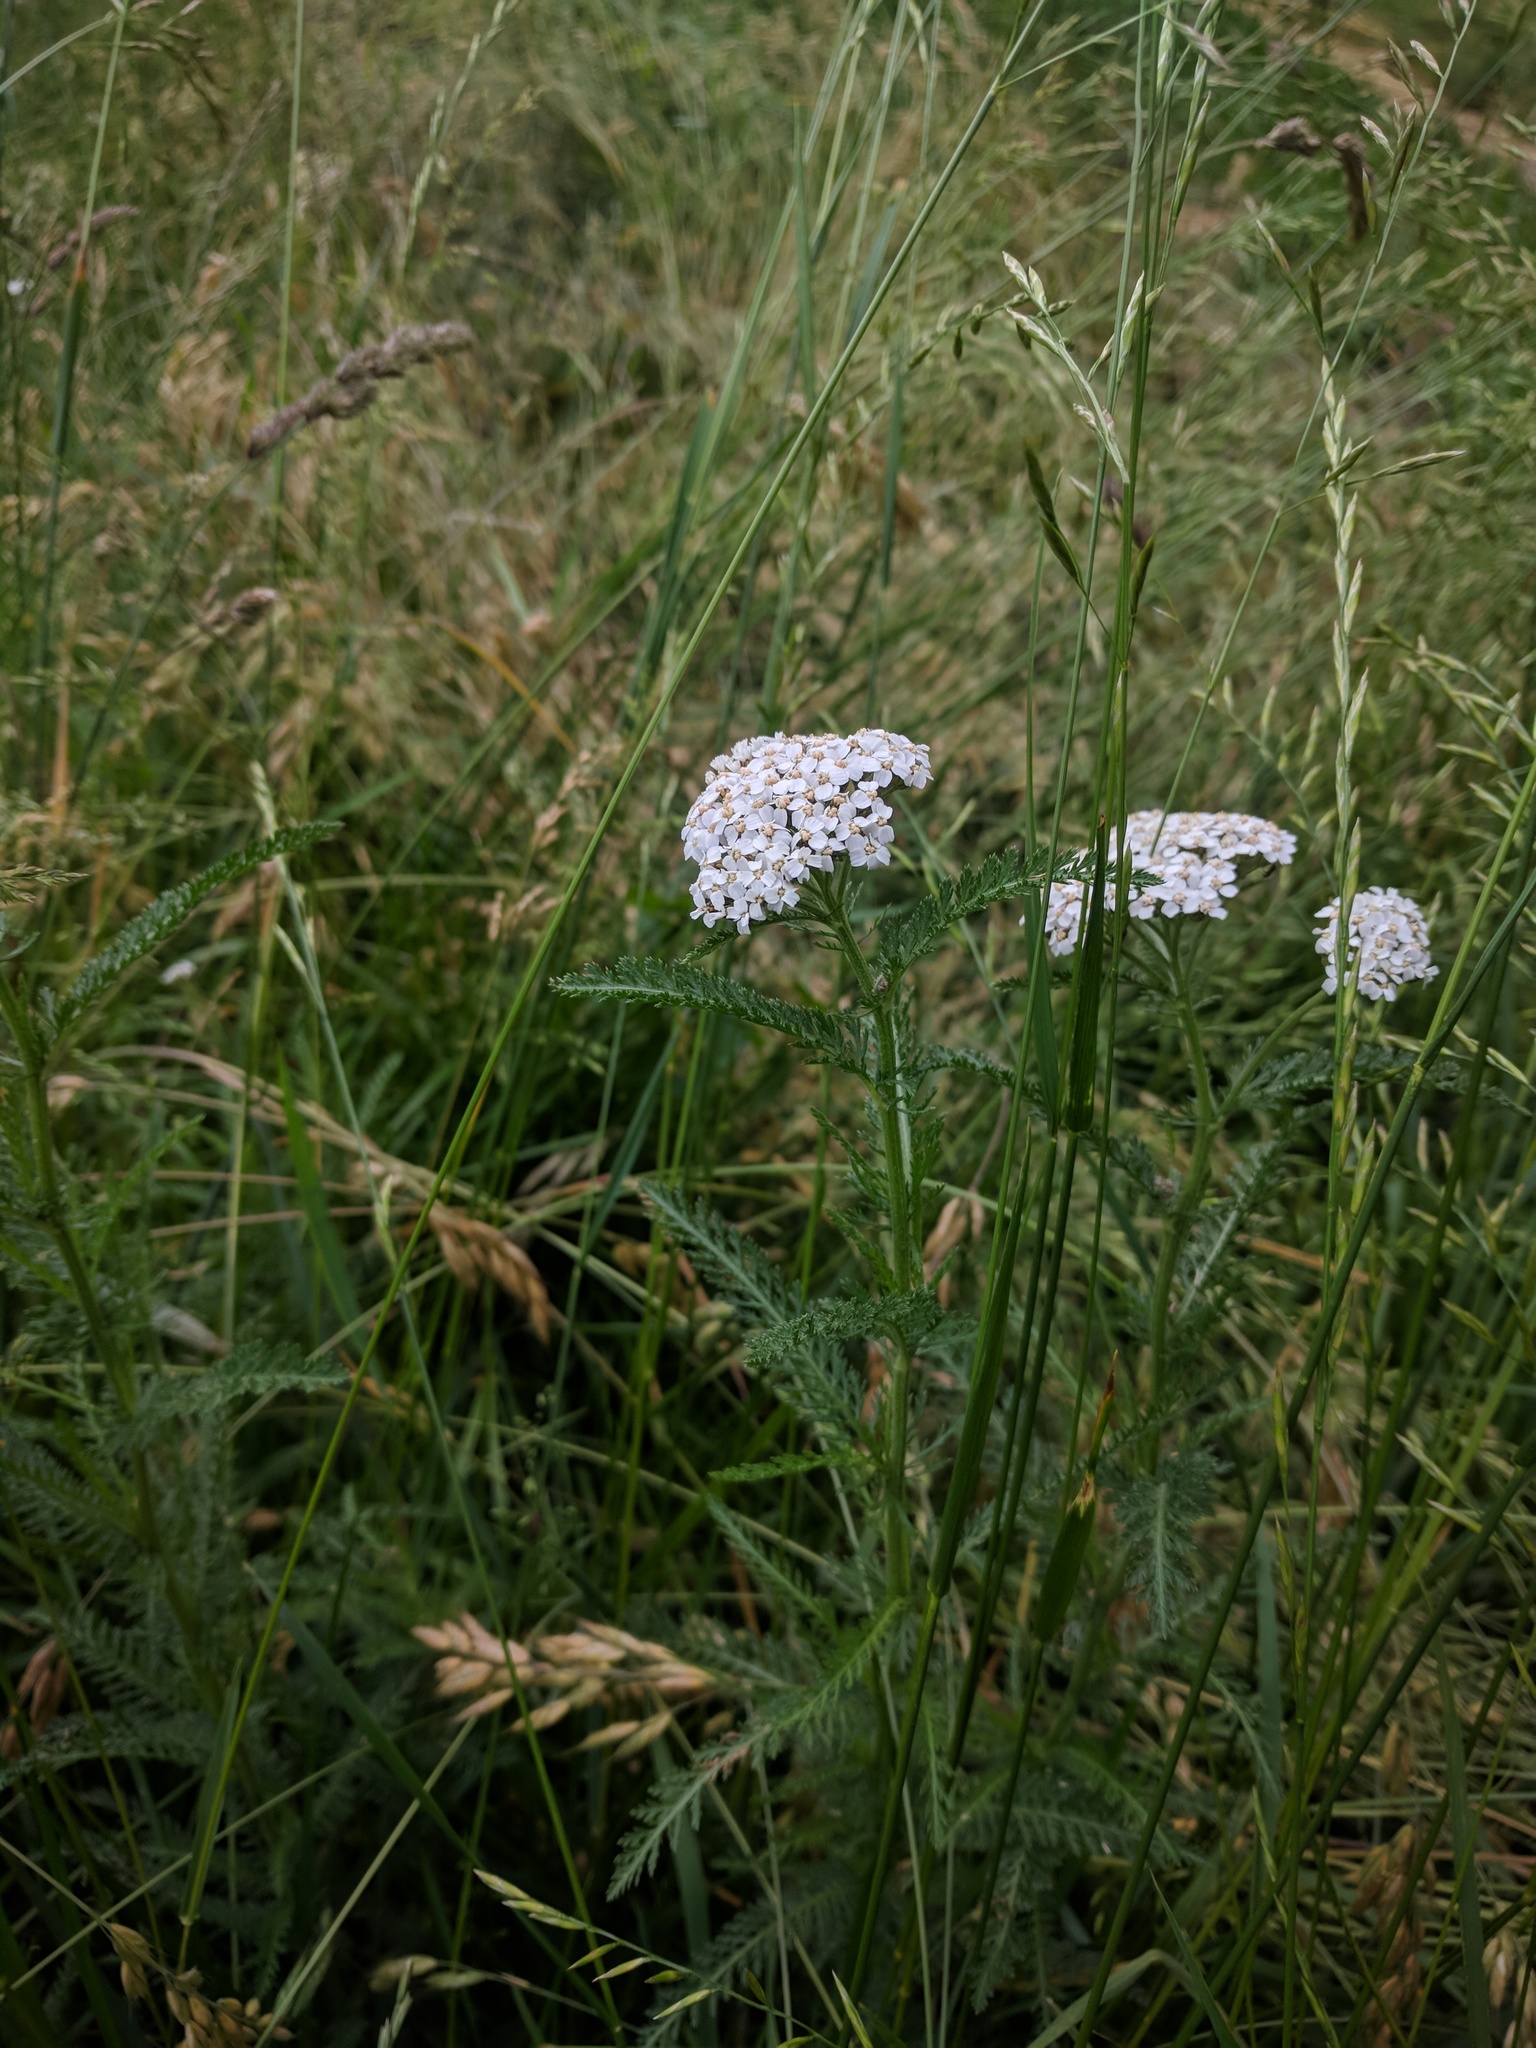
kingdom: Plantae
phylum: Tracheophyta
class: Magnoliopsida
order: Asterales
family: Asteraceae
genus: Achillea
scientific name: Achillea millefolium
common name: Yarrow
